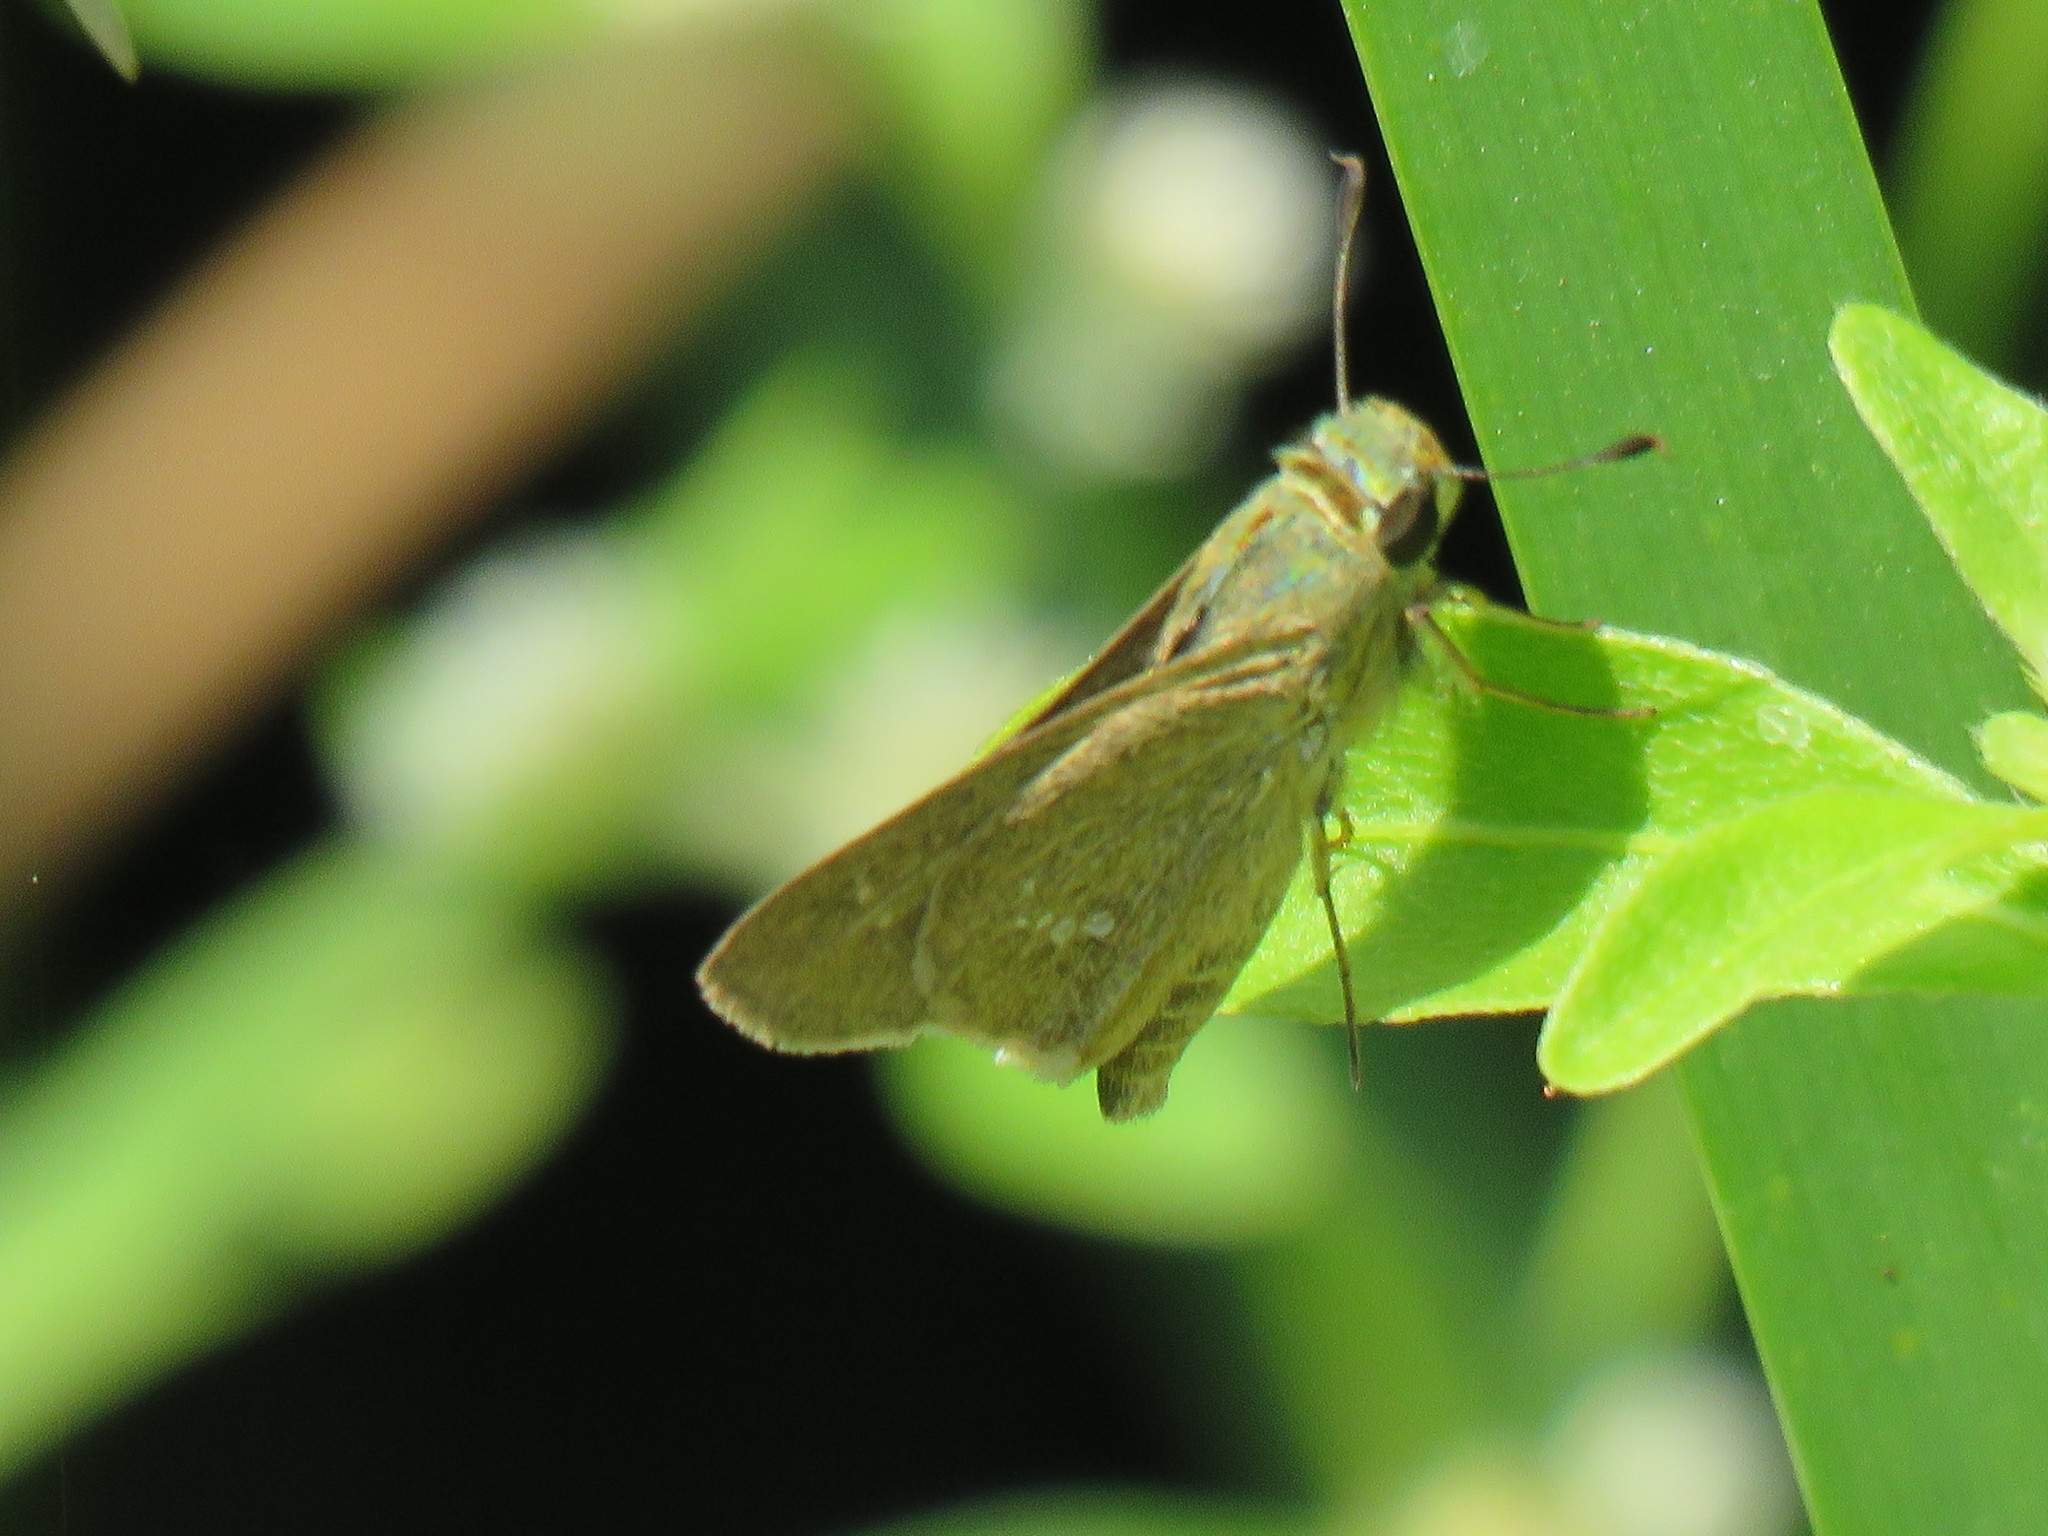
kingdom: Animalia
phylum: Arthropoda
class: Insecta
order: Lepidoptera
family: Hesperiidae
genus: Parnara
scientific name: Parnara naso
